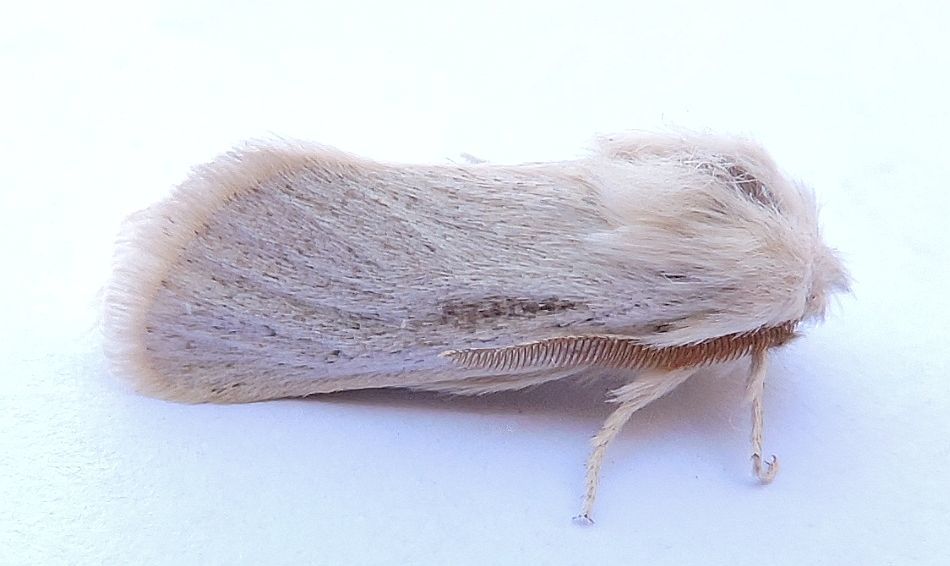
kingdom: Animalia
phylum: Arthropoda
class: Insecta
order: Lepidoptera
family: Cossidae
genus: Comadia
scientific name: Comadia manfredi
